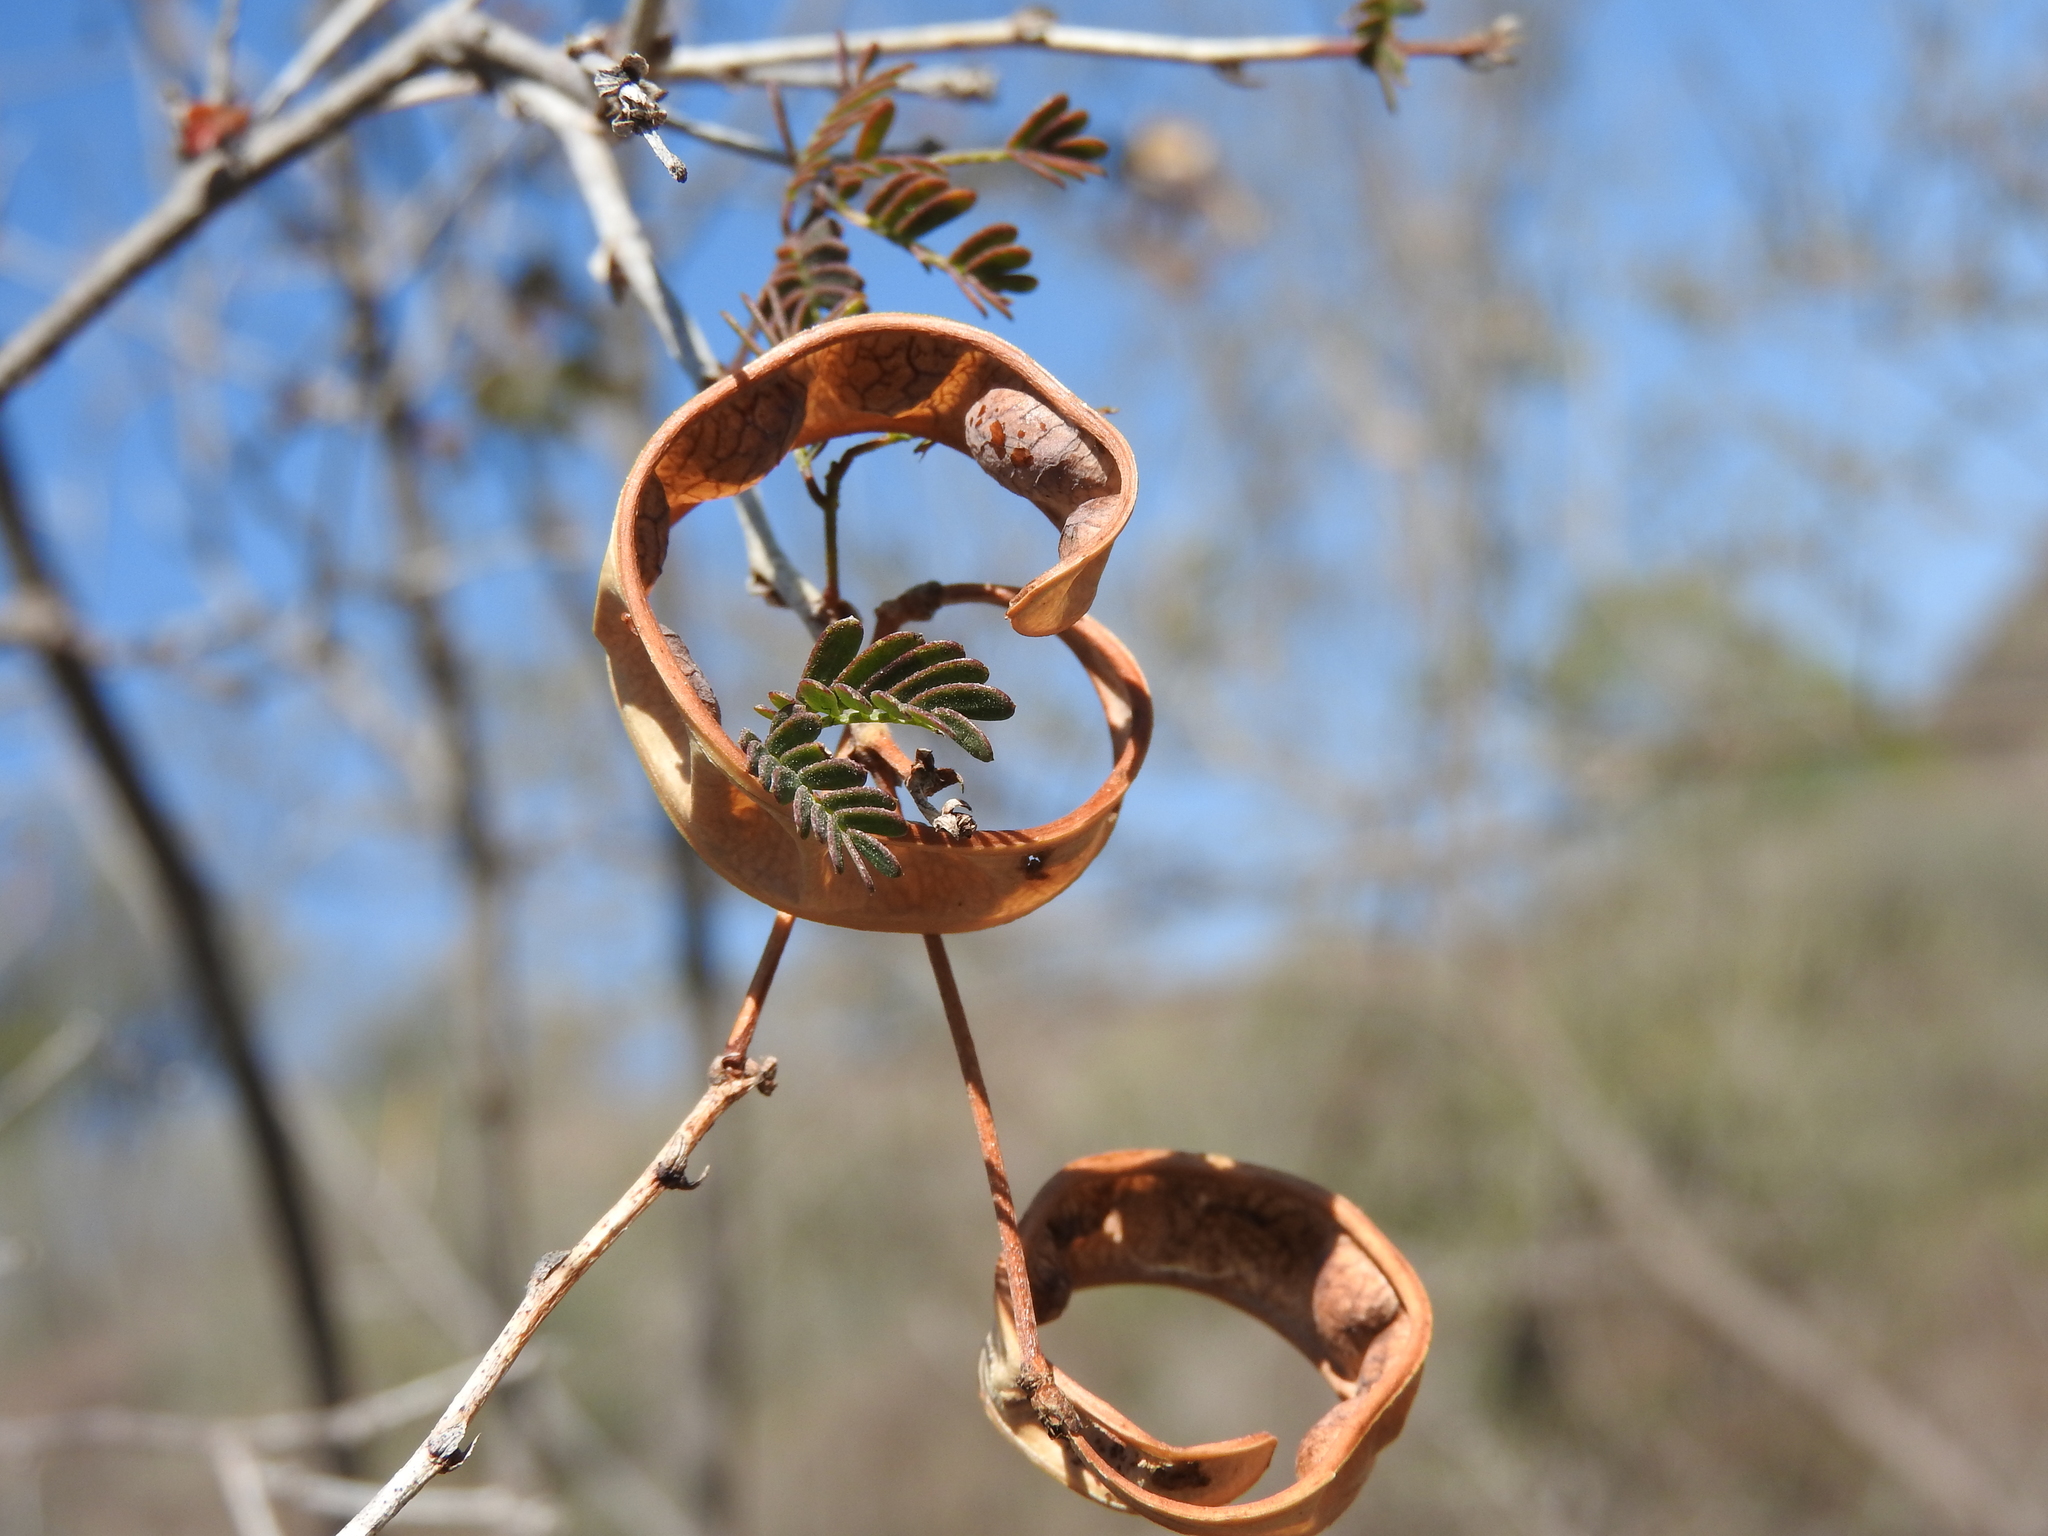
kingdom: Plantae
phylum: Tracheophyta
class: Magnoliopsida
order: Fabales
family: Fabaceae
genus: Zapoteca
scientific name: Zapoteca media
